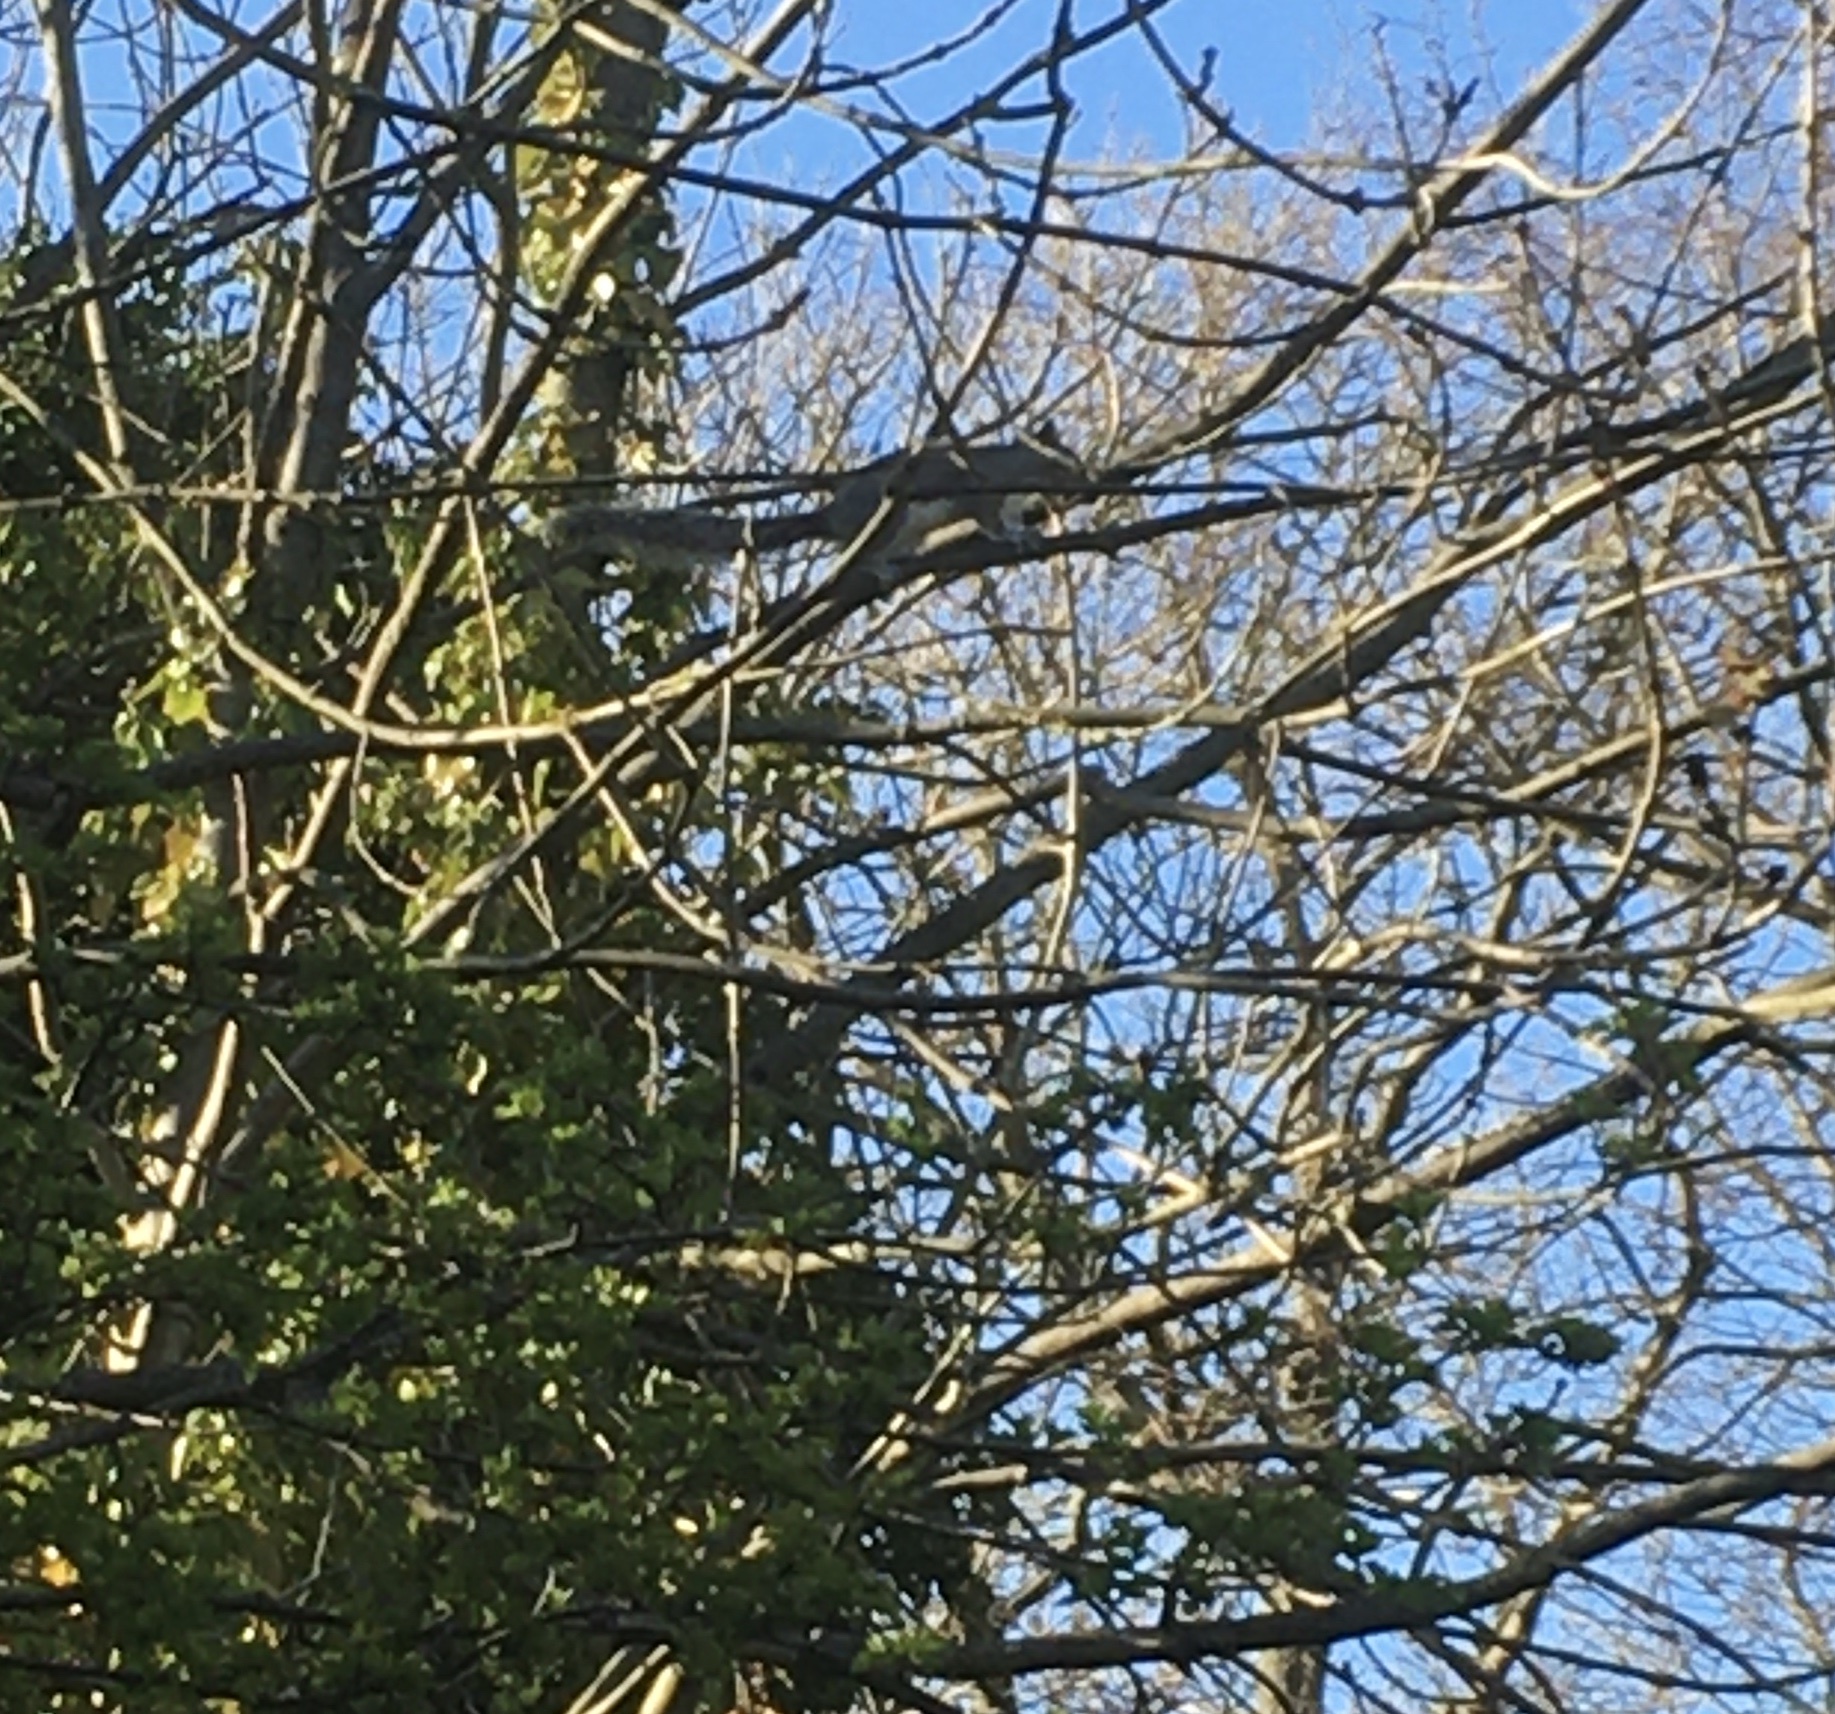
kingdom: Animalia
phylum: Chordata
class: Mammalia
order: Rodentia
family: Sciuridae
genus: Sciurus
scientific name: Sciurus carolinensis
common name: Eastern gray squirrel
